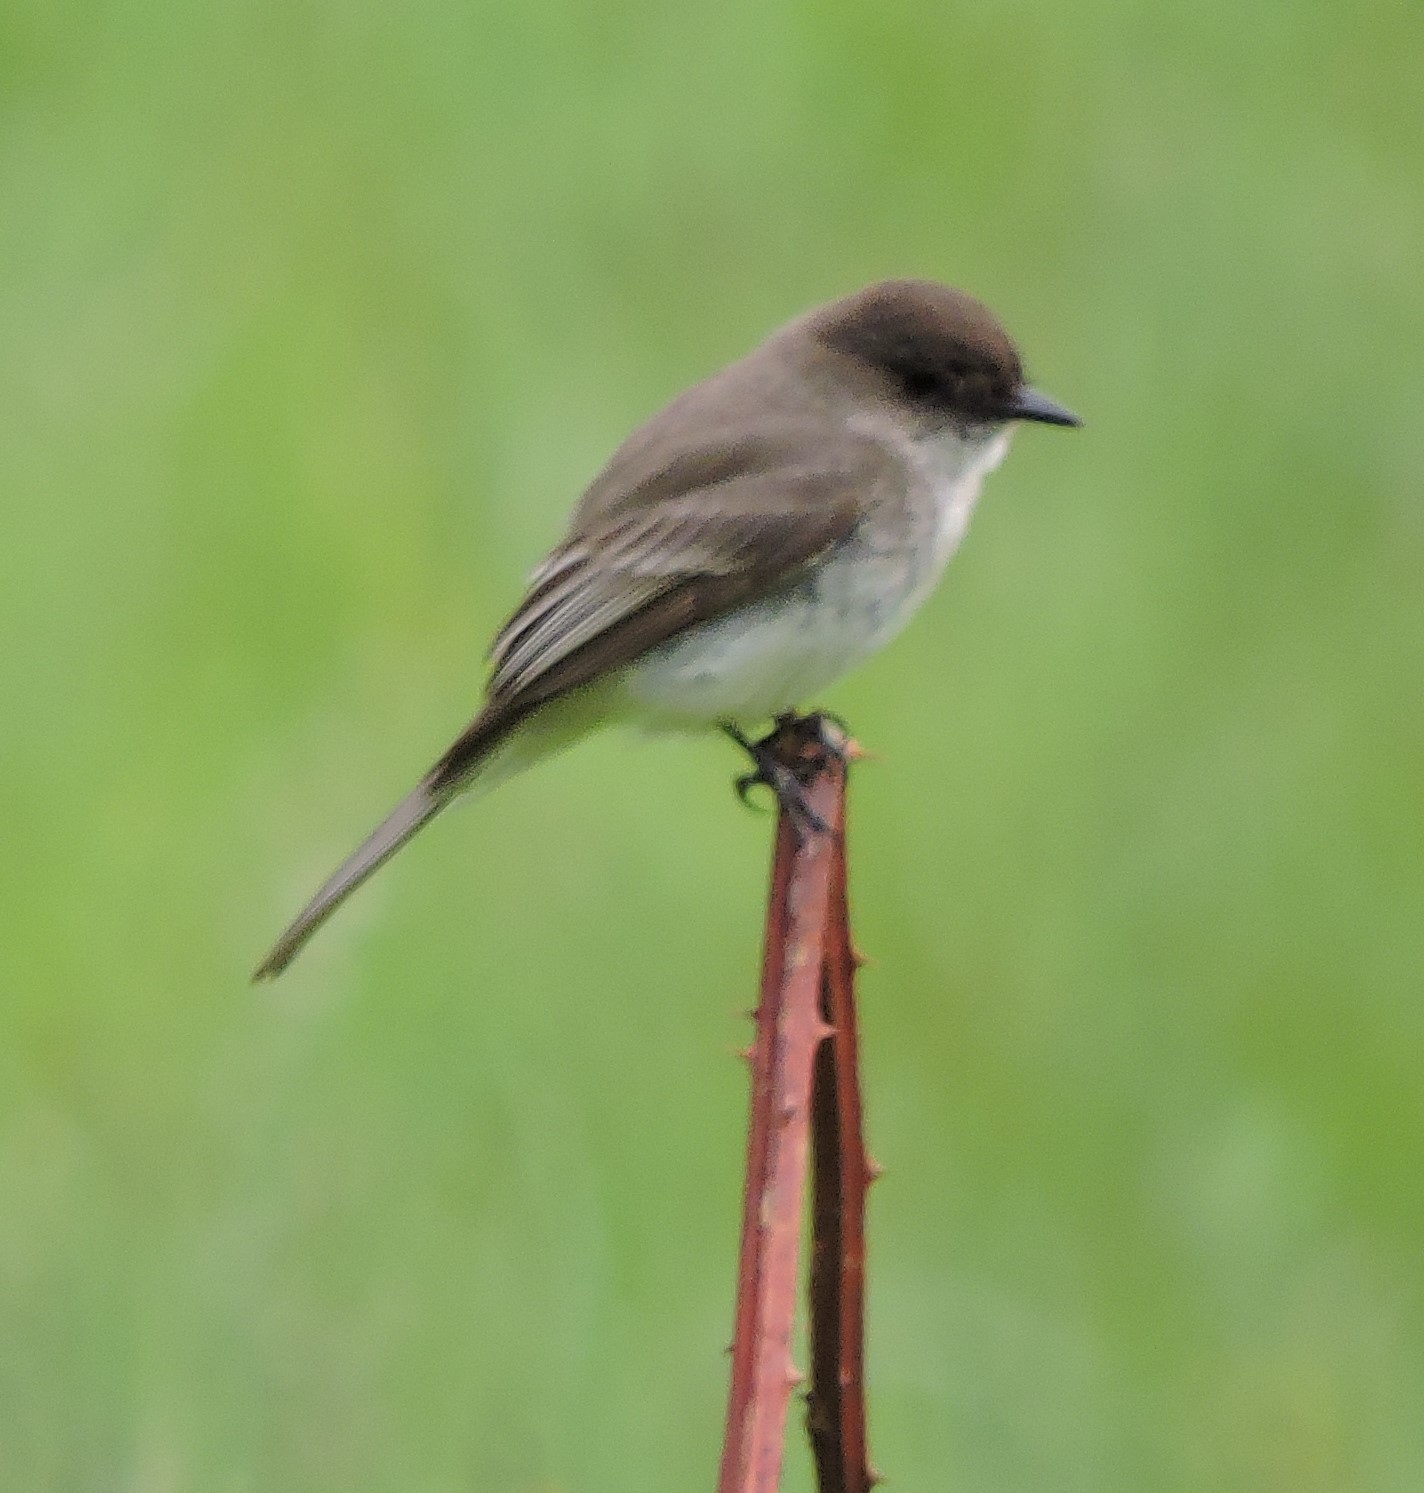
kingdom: Animalia
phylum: Chordata
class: Aves
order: Passeriformes
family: Tyrannidae
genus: Sayornis
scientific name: Sayornis phoebe
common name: Eastern phoebe
